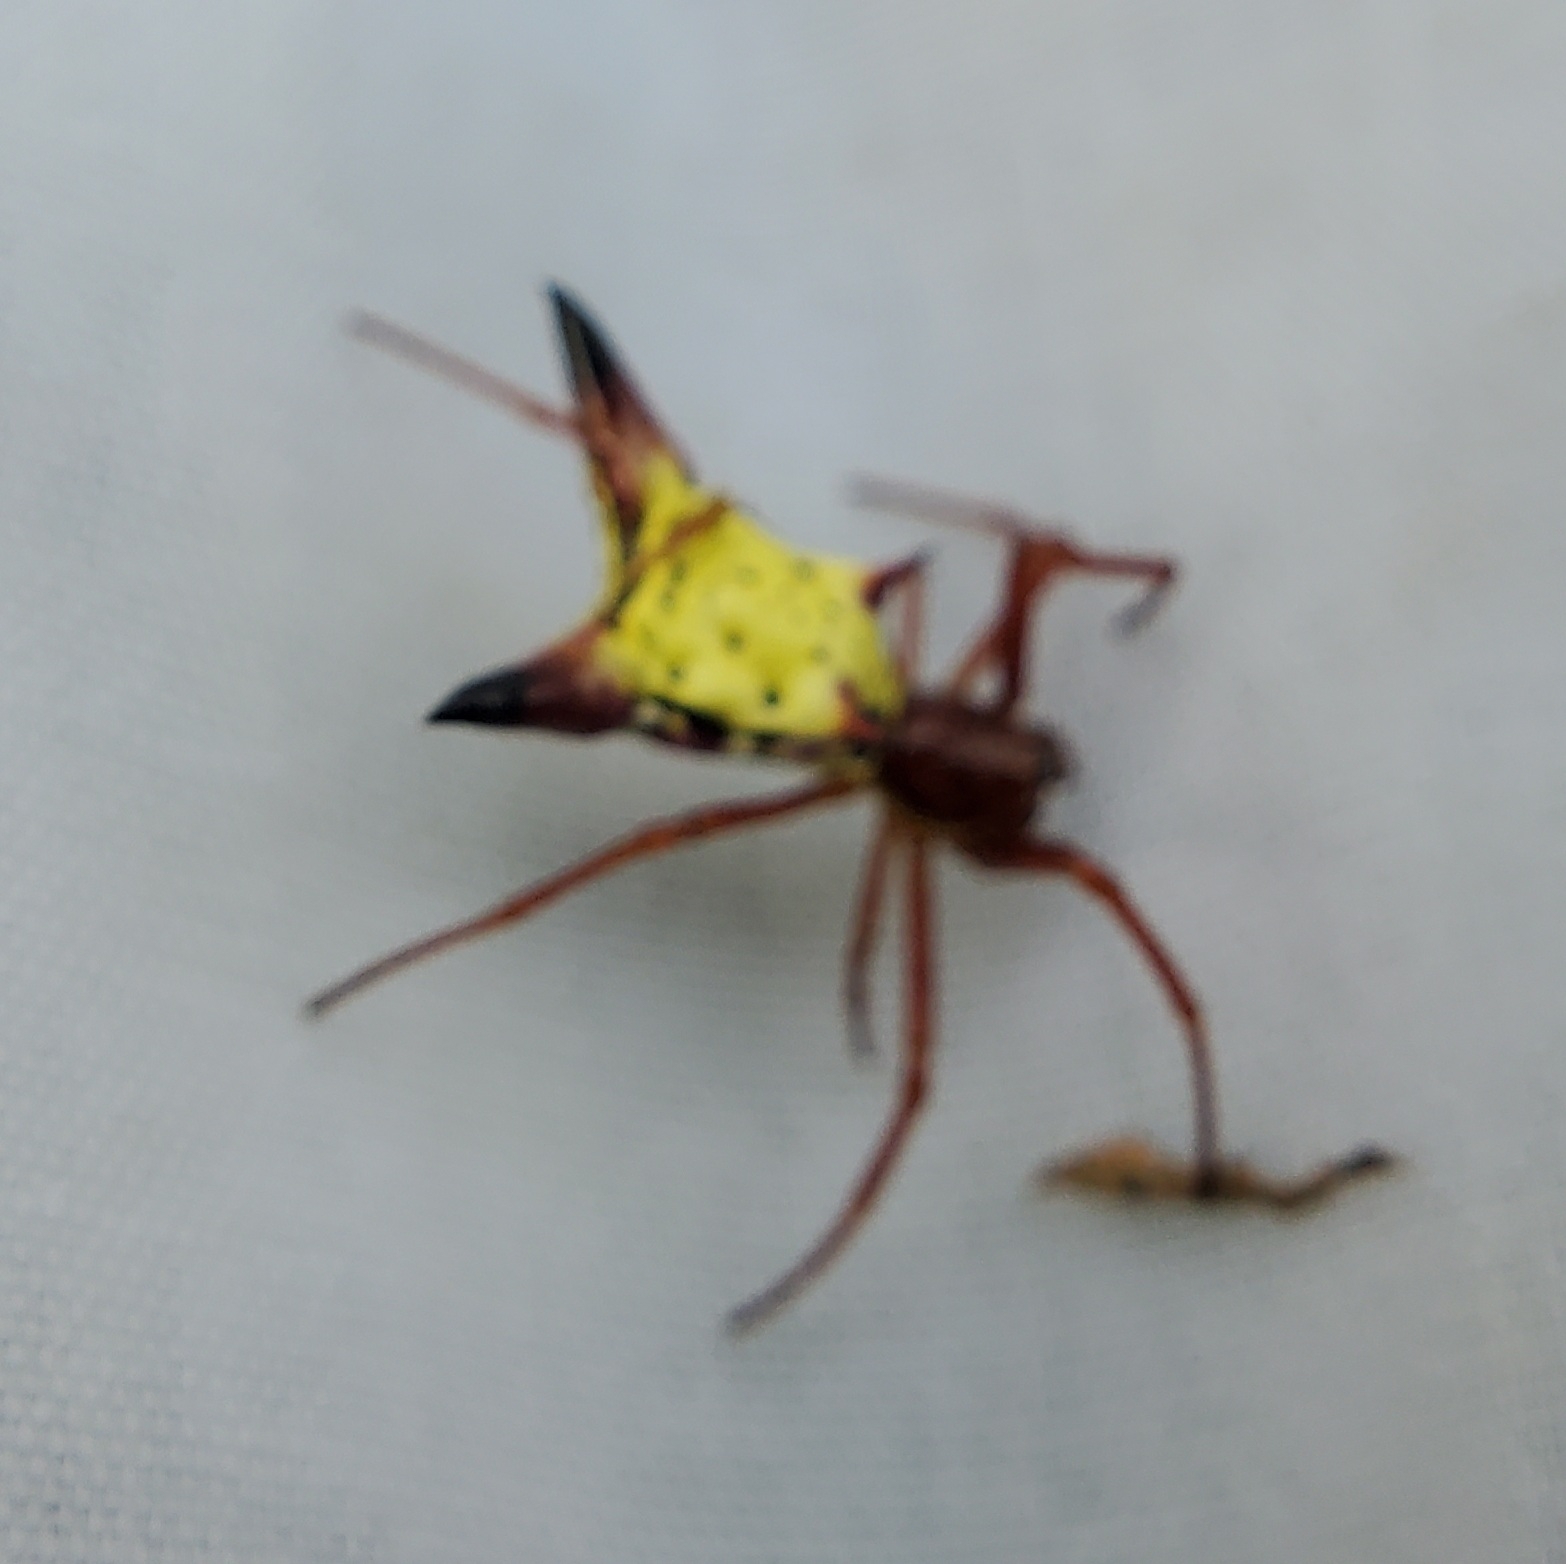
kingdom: Animalia
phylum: Arthropoda
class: Arachnida
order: Araneae
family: Araneidae
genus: Micrathena
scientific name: Micrathena sagittata
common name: Orb weavers
